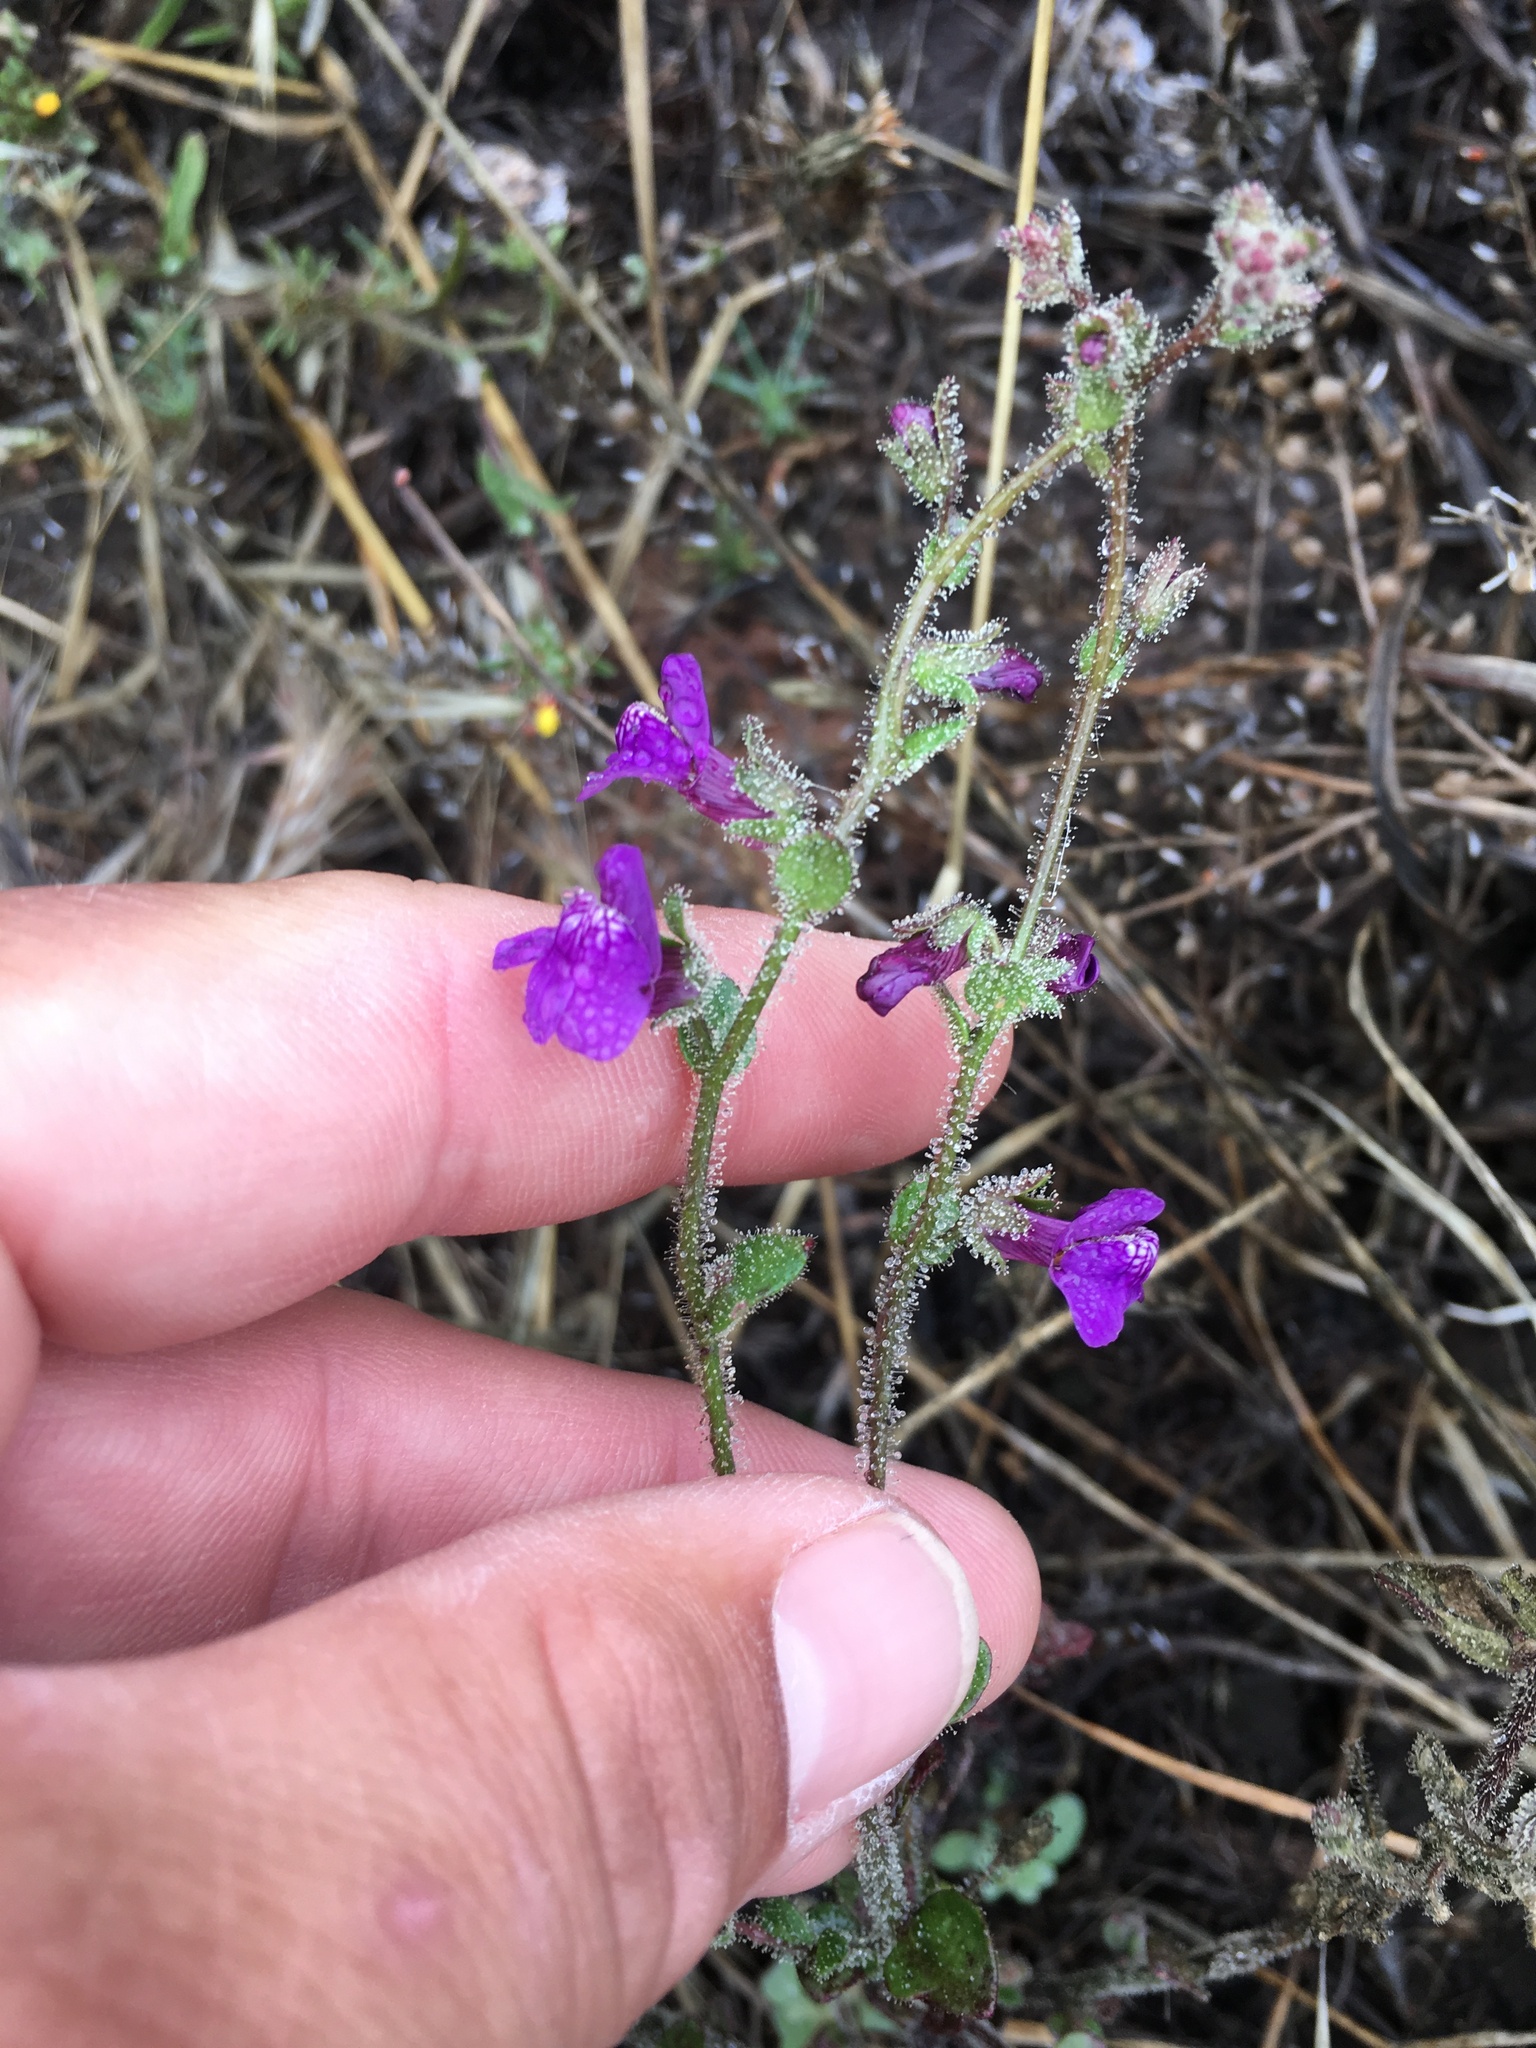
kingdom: Plantae
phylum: Tracheophyta
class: Magnoliopsida
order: Lamiales
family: Plantaginaceae
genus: Sairocarpus
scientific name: Sairocarpus nuttallianus
